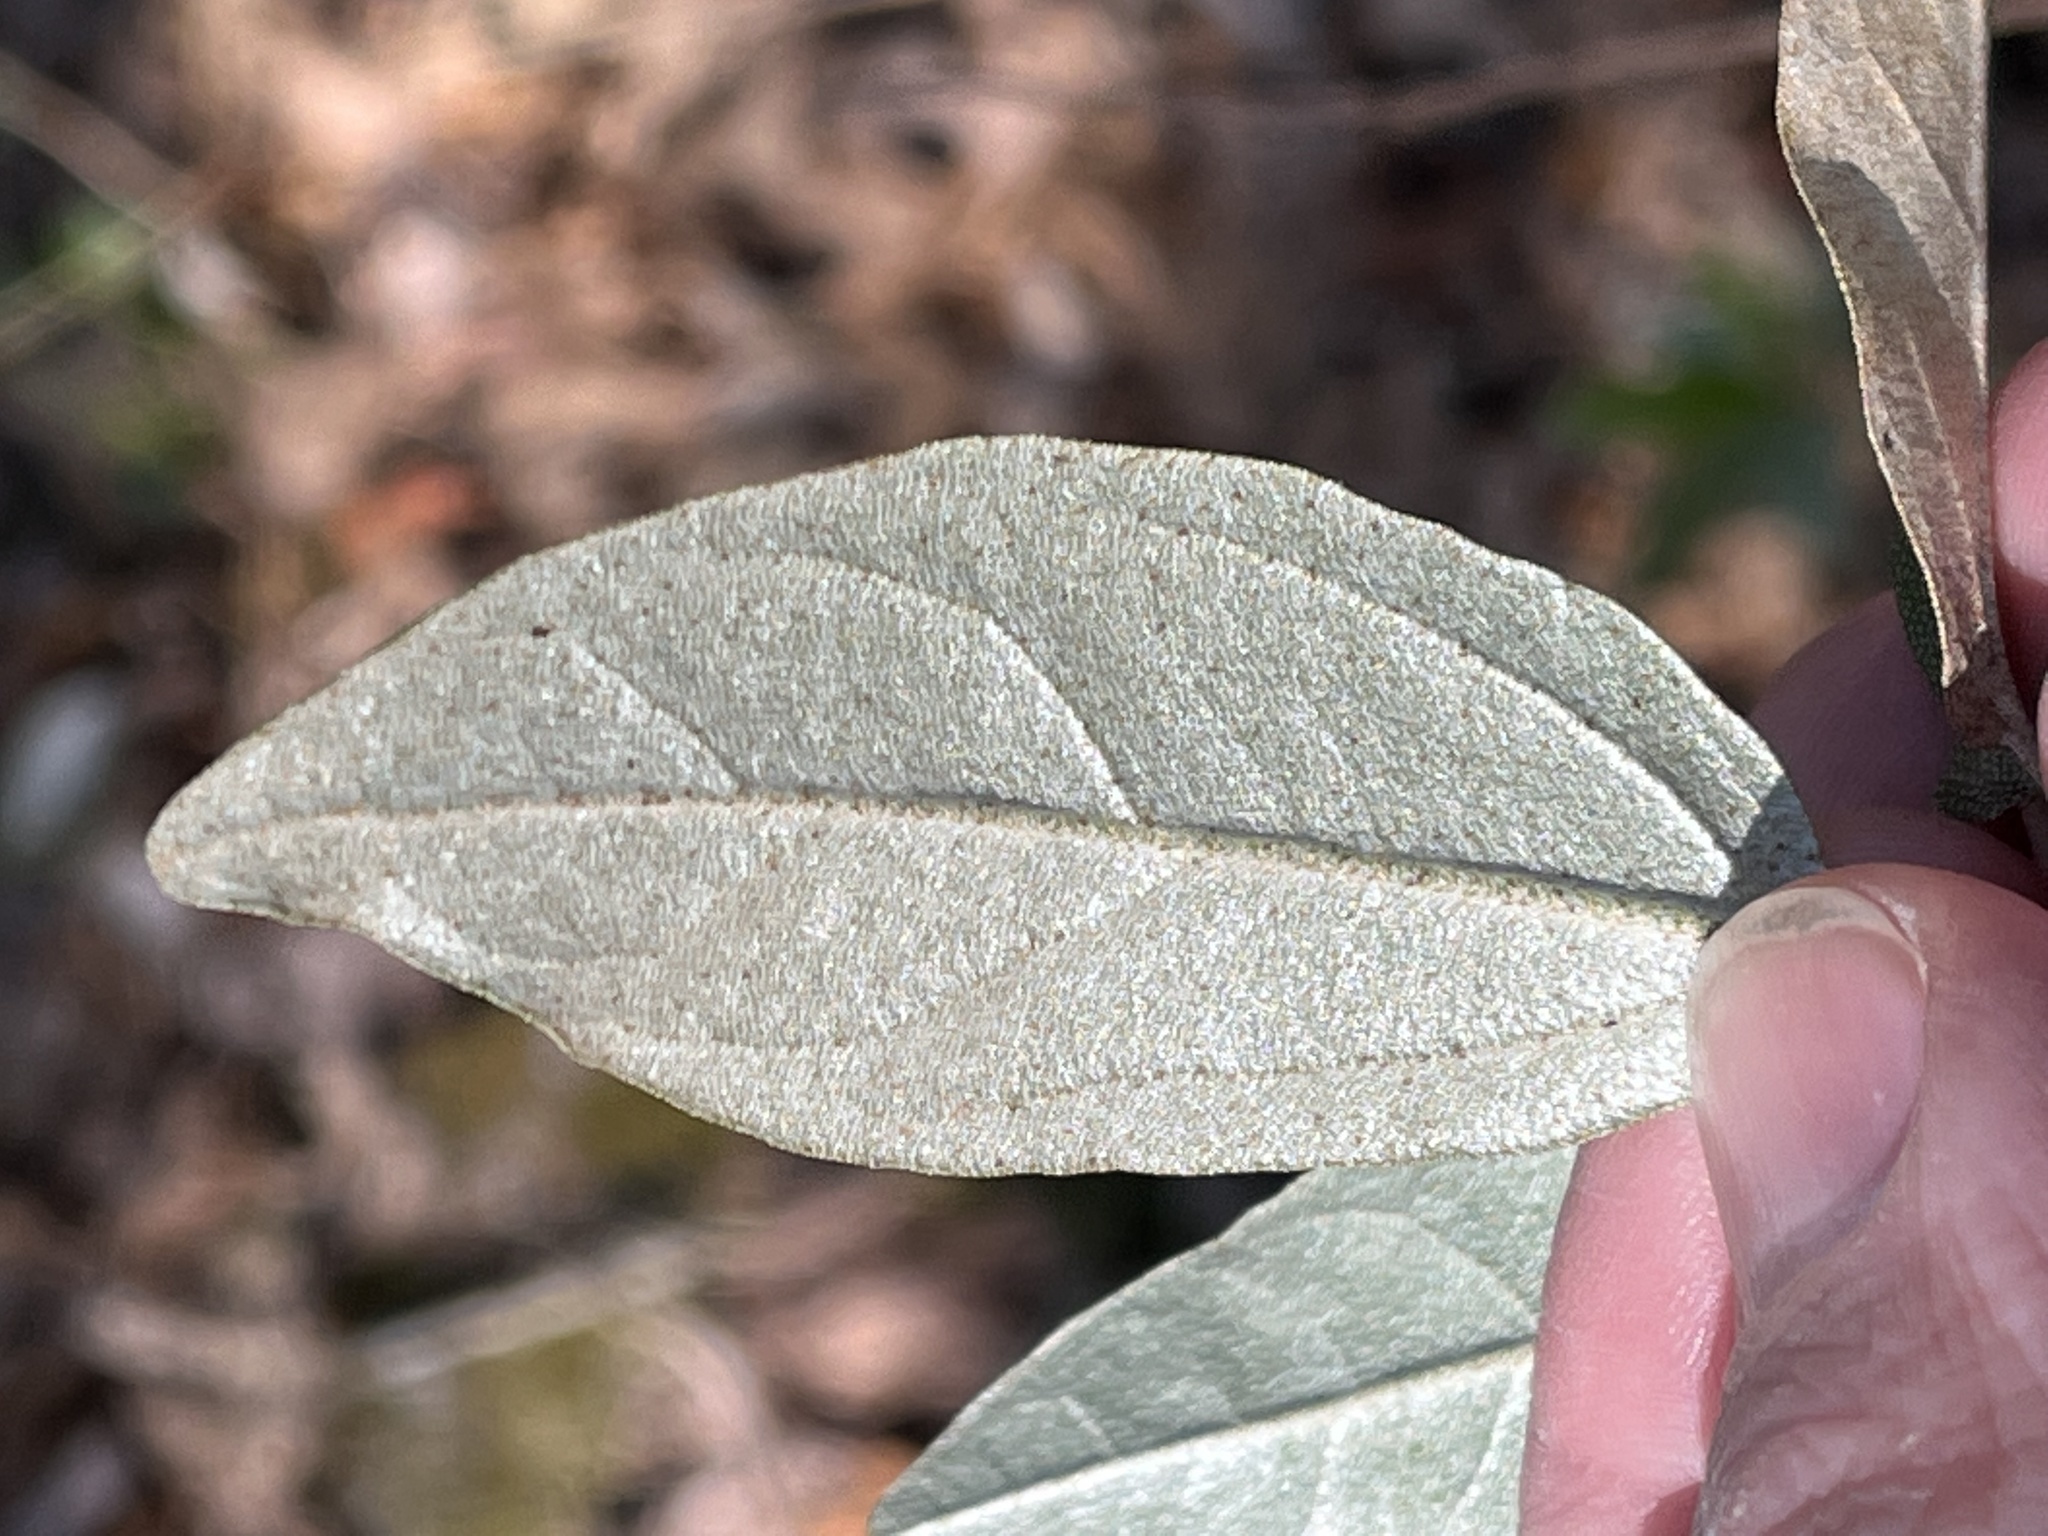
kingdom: Plantae
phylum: Tracheophyta
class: Magnoliopsida
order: Malpighiales
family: Euphorbiaceae
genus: Croton
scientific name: Croton alabamensis
